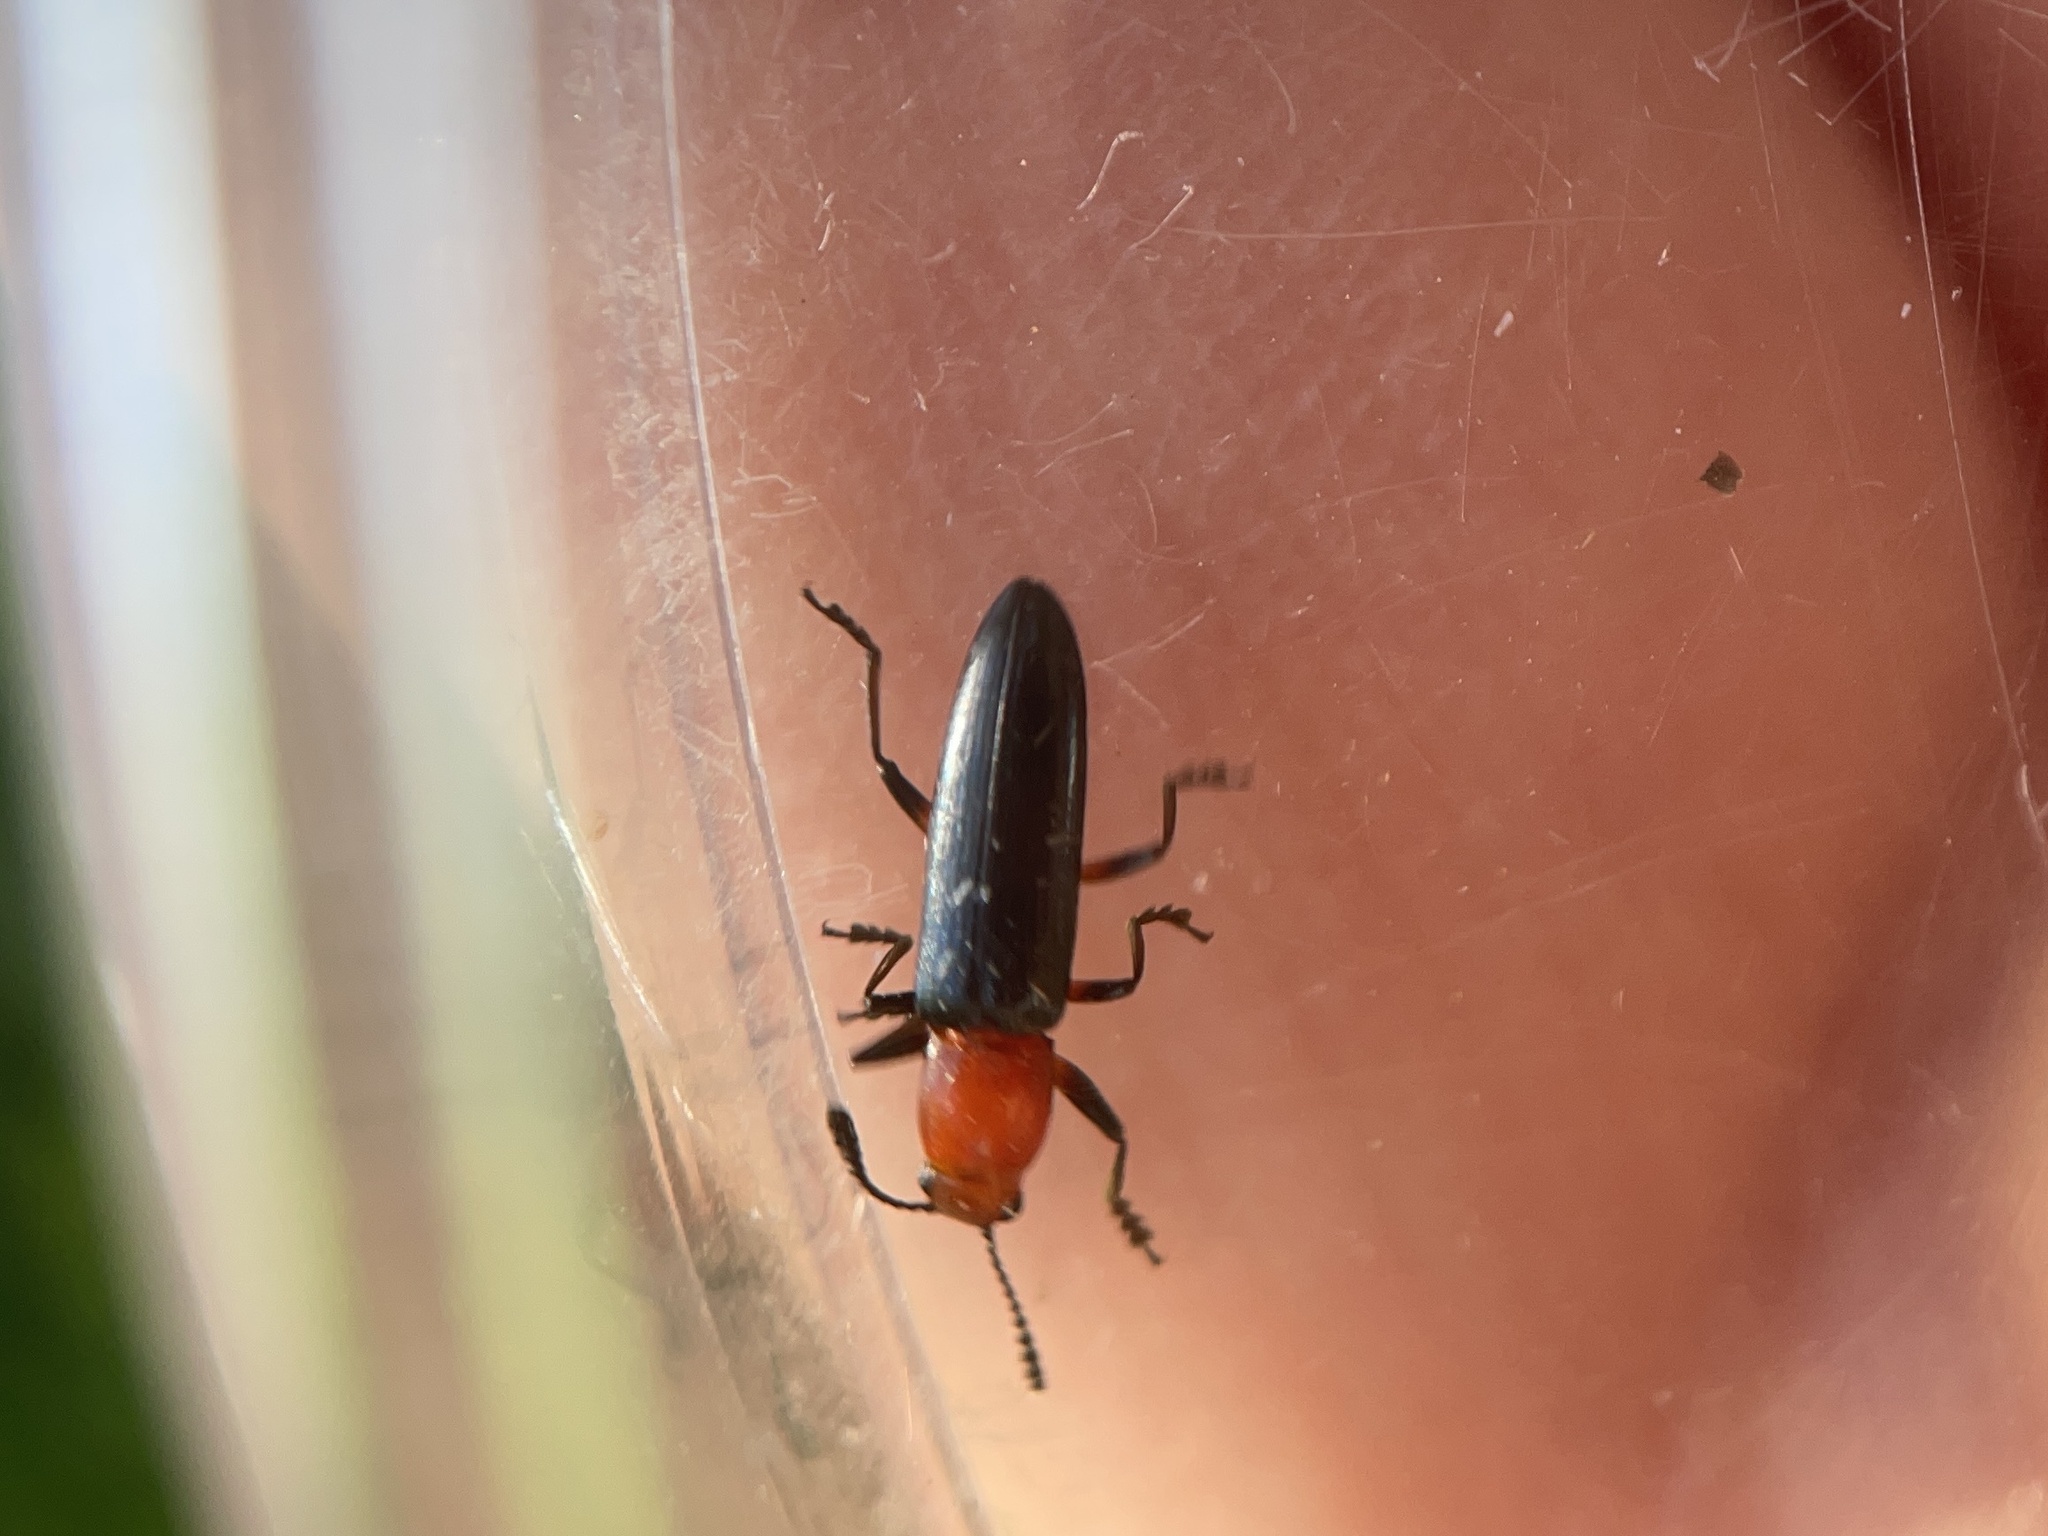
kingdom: Animalia
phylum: Arthropoda
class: Insecta
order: Coleoptera
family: Erotylidae
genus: Languria
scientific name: Languria mozardi
